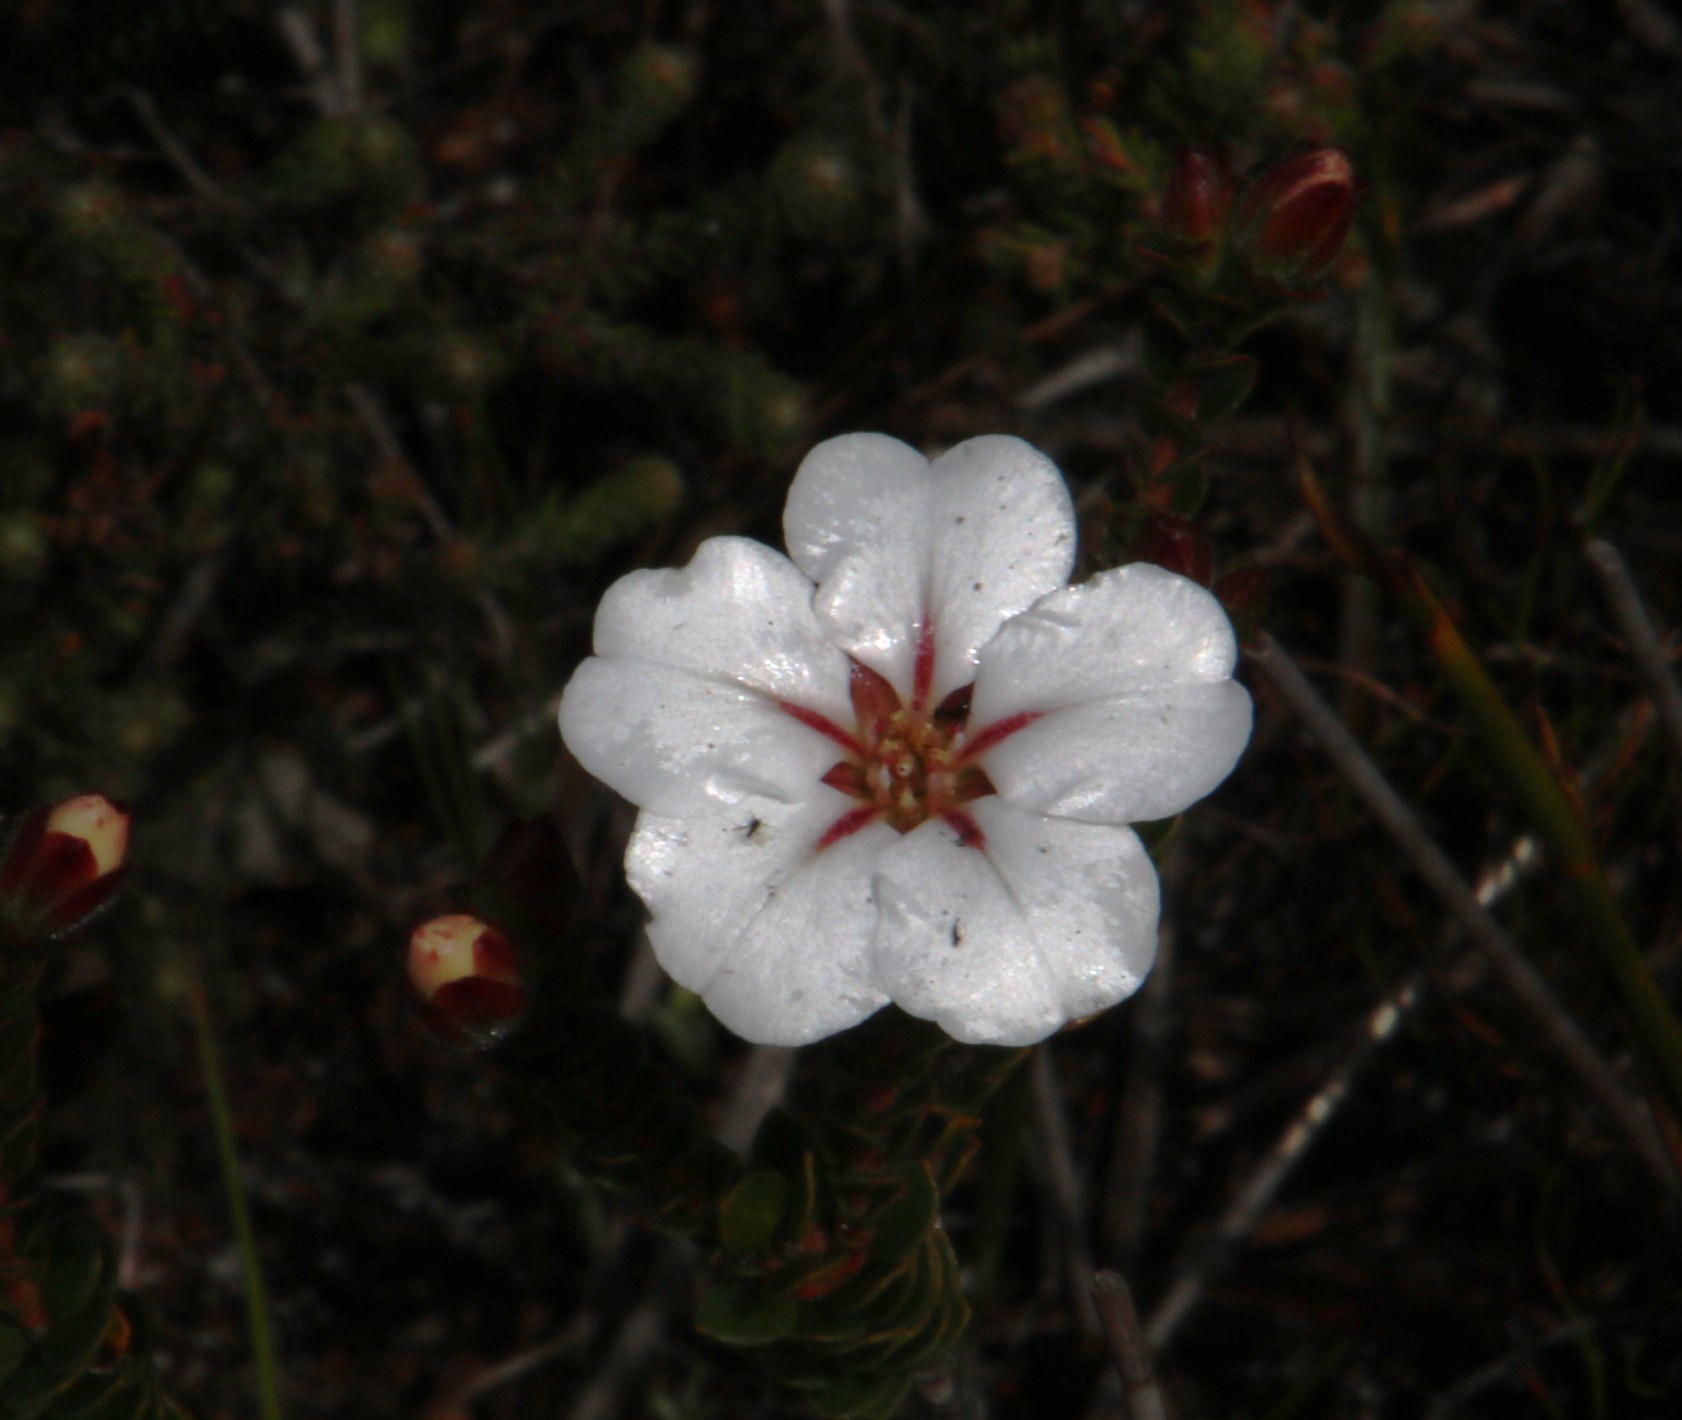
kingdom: Plantae
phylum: Tracheophyta
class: Magnoliopsida
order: Sapindales
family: Rutaceae
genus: Adenandra
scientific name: Adenandra villosa
